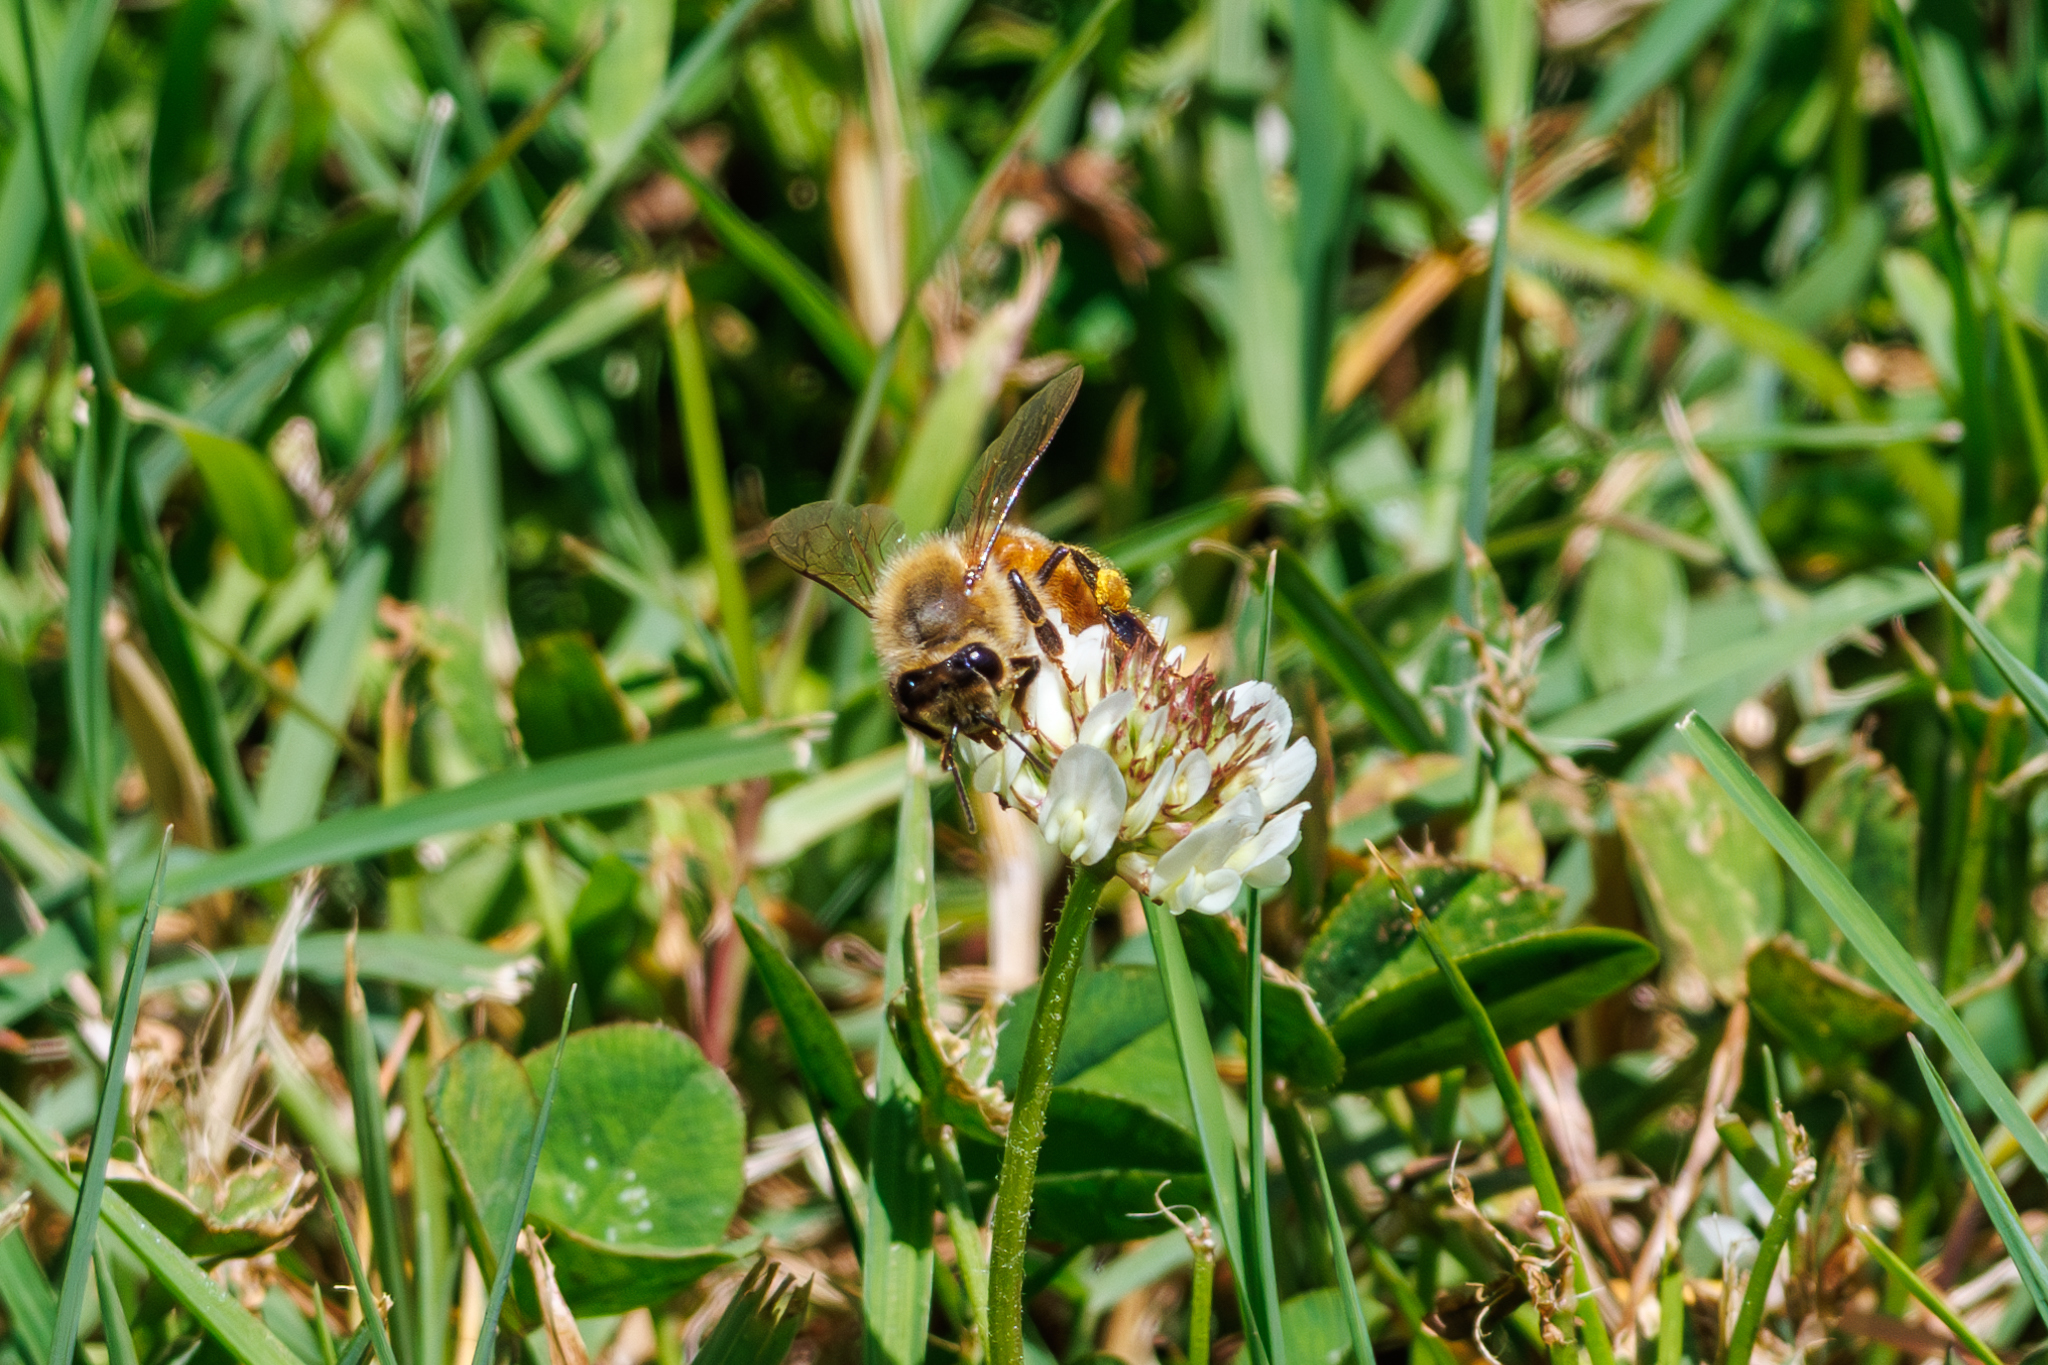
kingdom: Animalia
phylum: Arthropoda
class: Insecta
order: Hymenoptera
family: Apidae
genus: Apis
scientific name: Apis mellifera
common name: Honey bee
